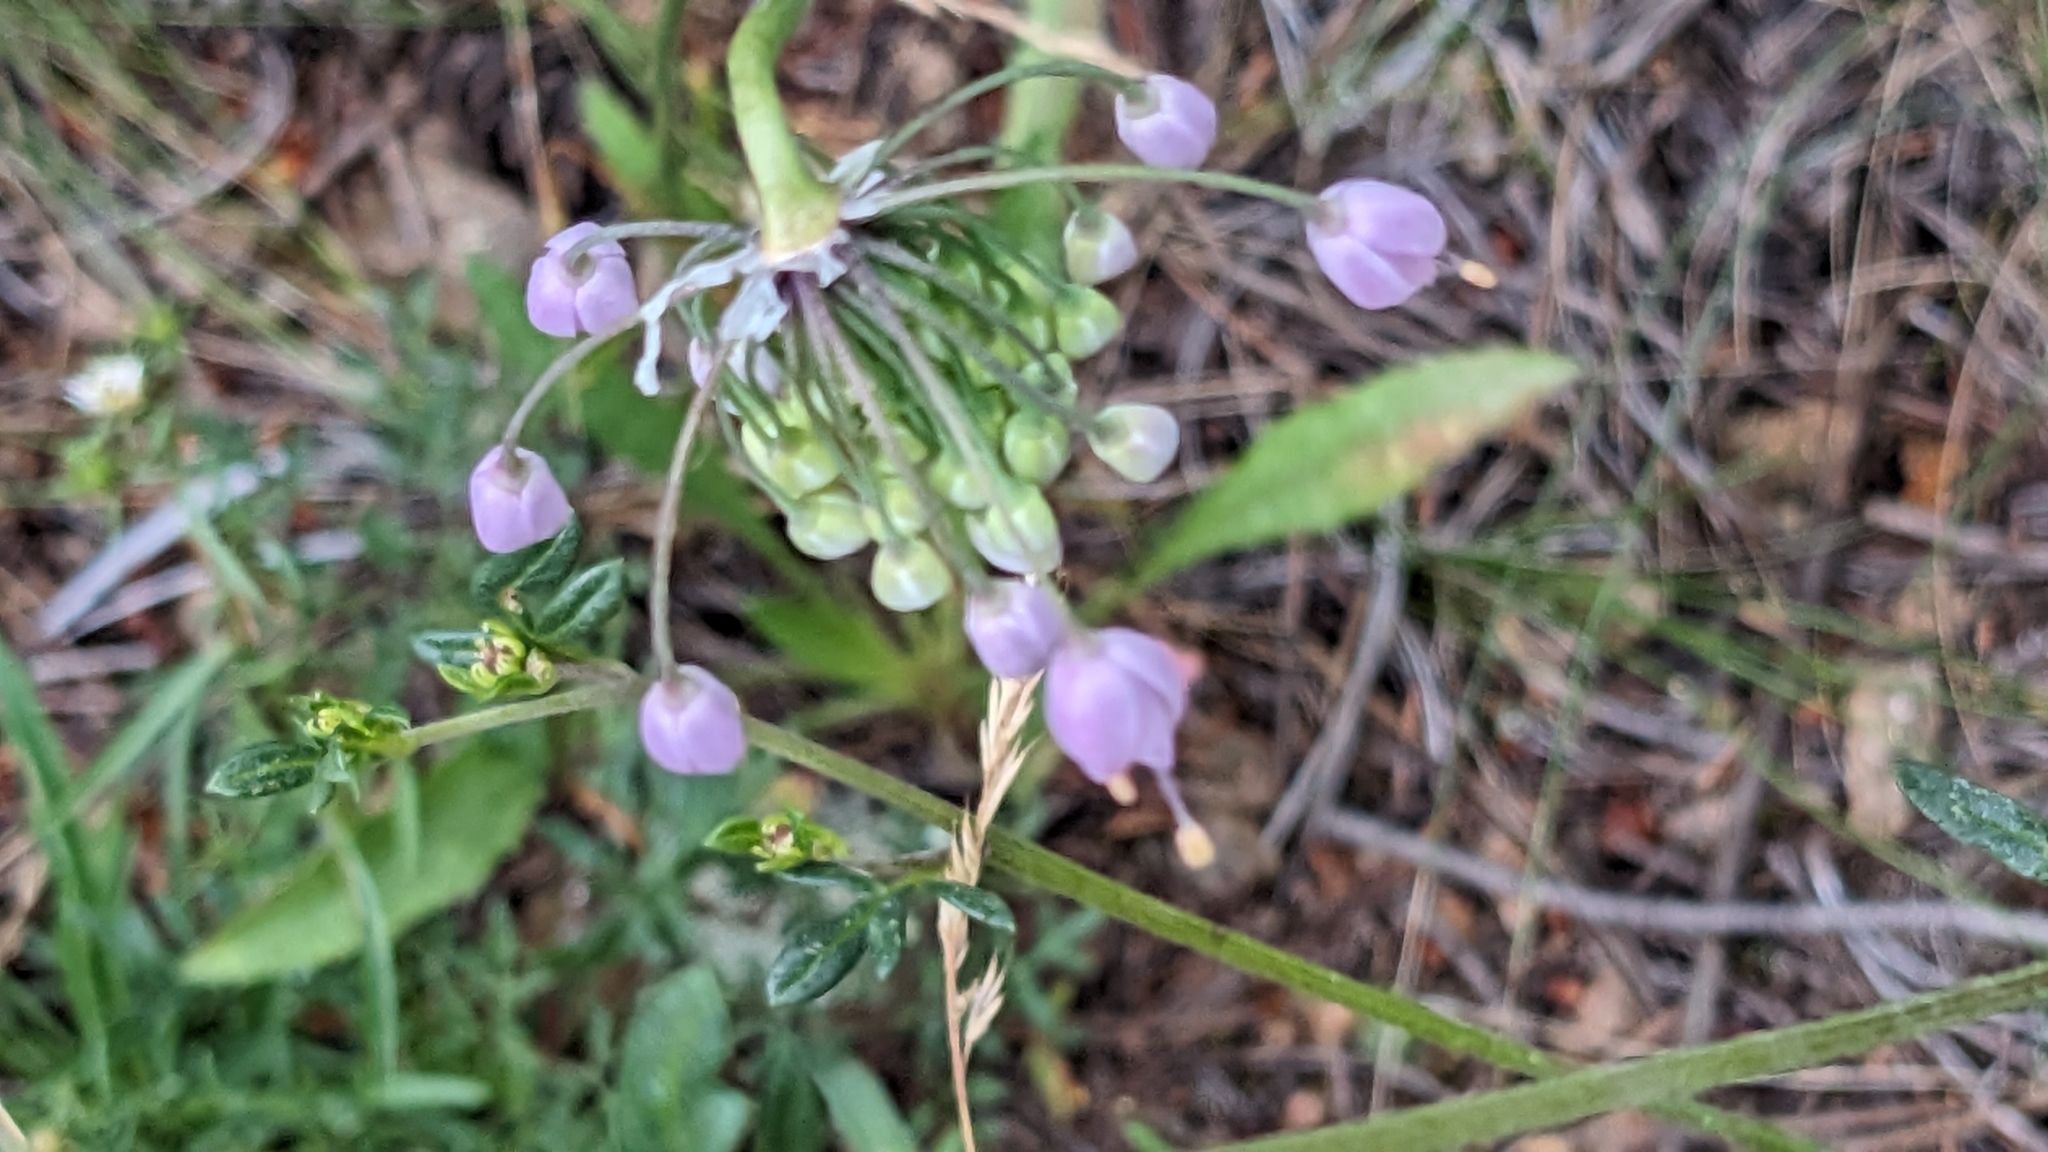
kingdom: Plantae
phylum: Tracheophyta
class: Liliopsida
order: Asparagales
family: Amaryllidaceae
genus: Allium
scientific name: Allium cernuum
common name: Nodding onion
